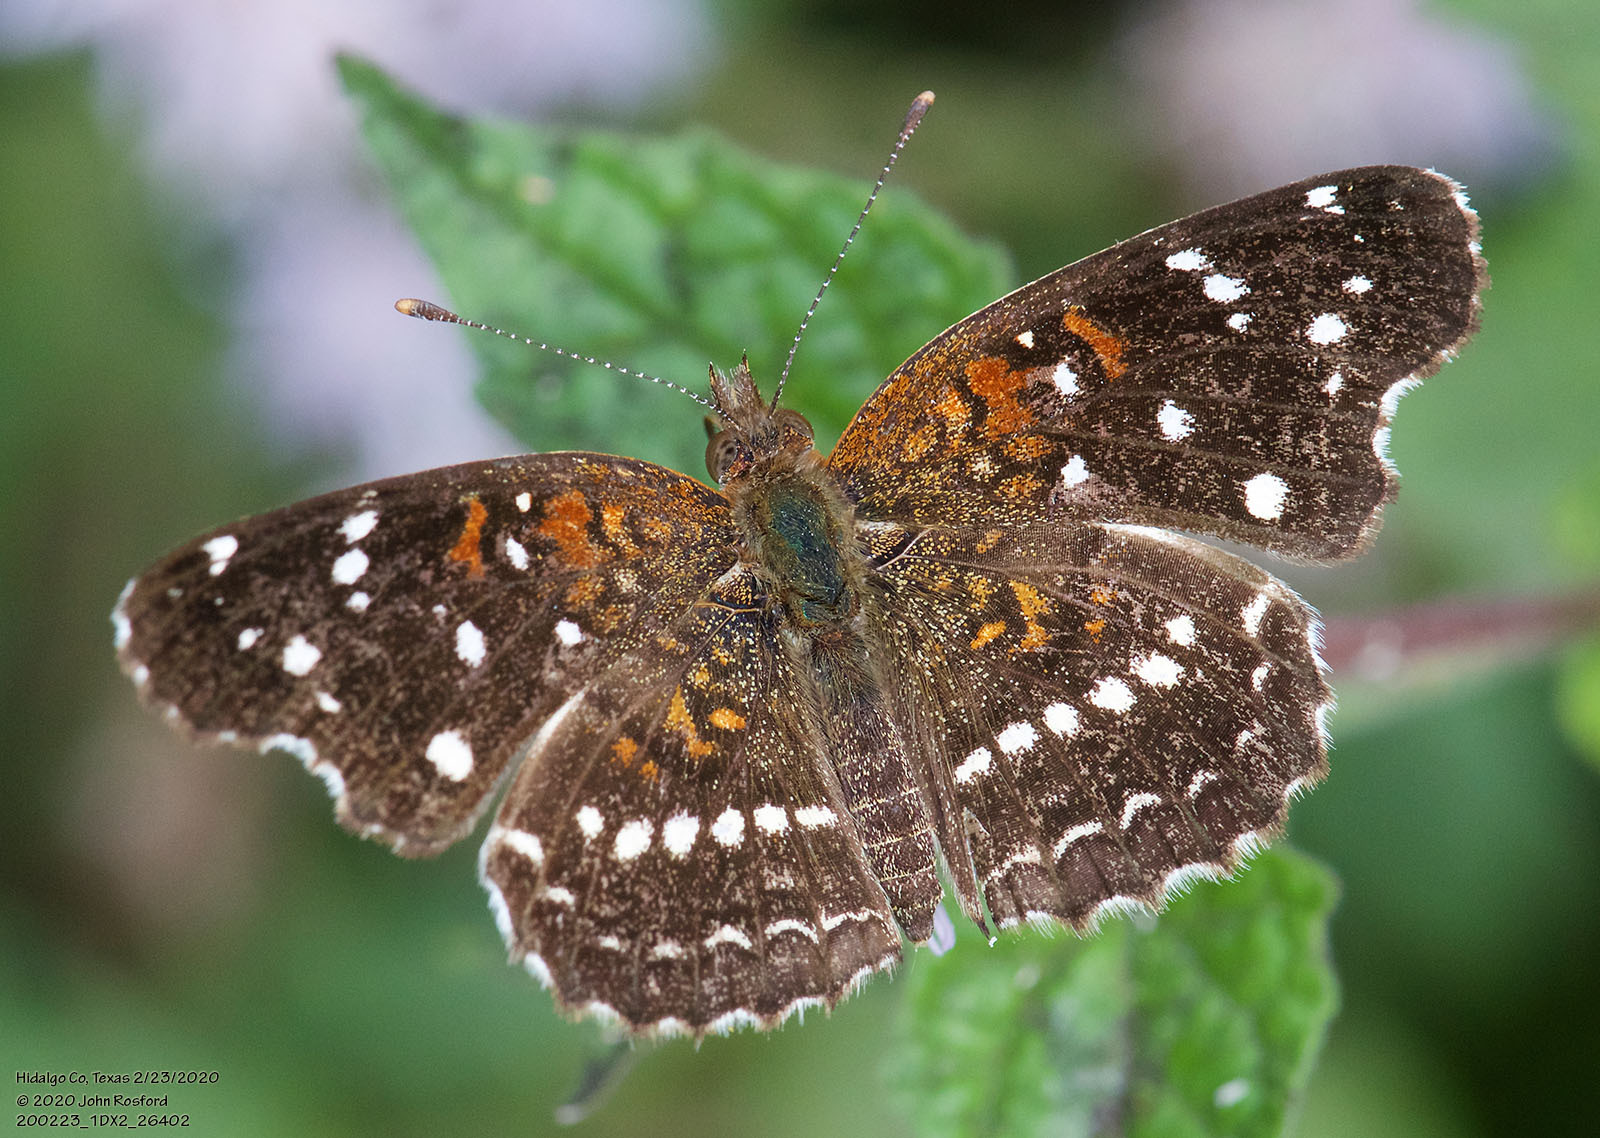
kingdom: Animalia
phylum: Arthropoda
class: Insecta
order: Lepidoptera
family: Nymphalidae
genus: Anthanassa
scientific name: Anthanassa texana
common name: Texan crescent
